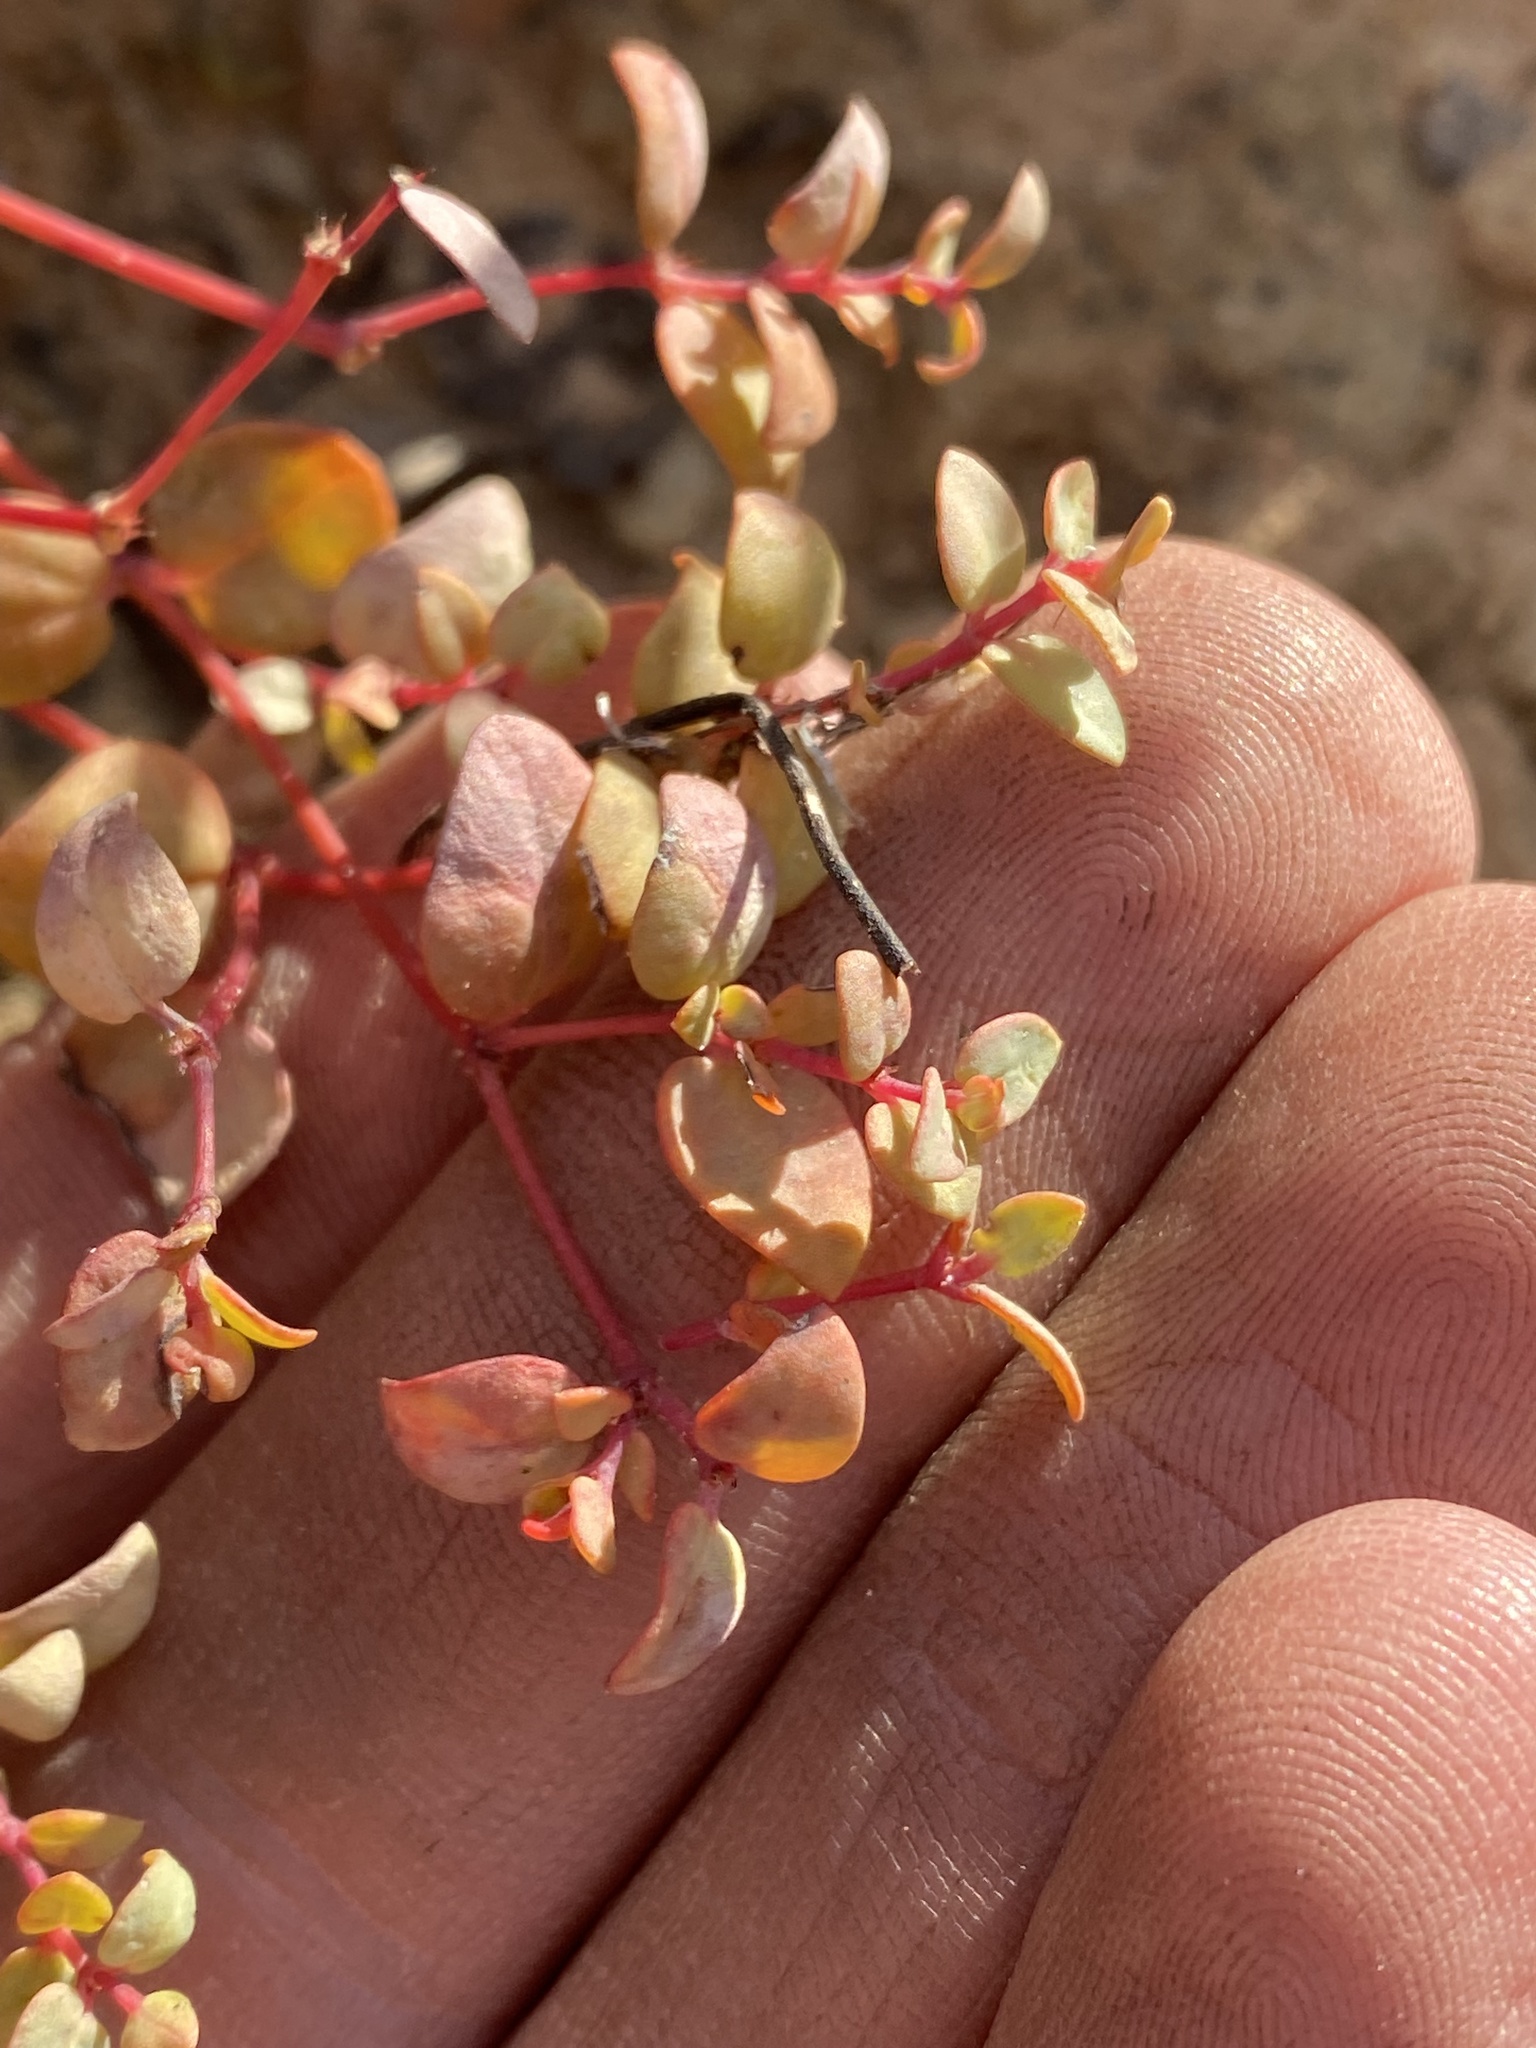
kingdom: Plantae
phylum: Tracheophyta
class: Magnoliopsida
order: Malpighiales
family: Euphorbiaceae
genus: Euphorbia
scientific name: Euphorbia fendleri
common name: Fendler's euphorbia
